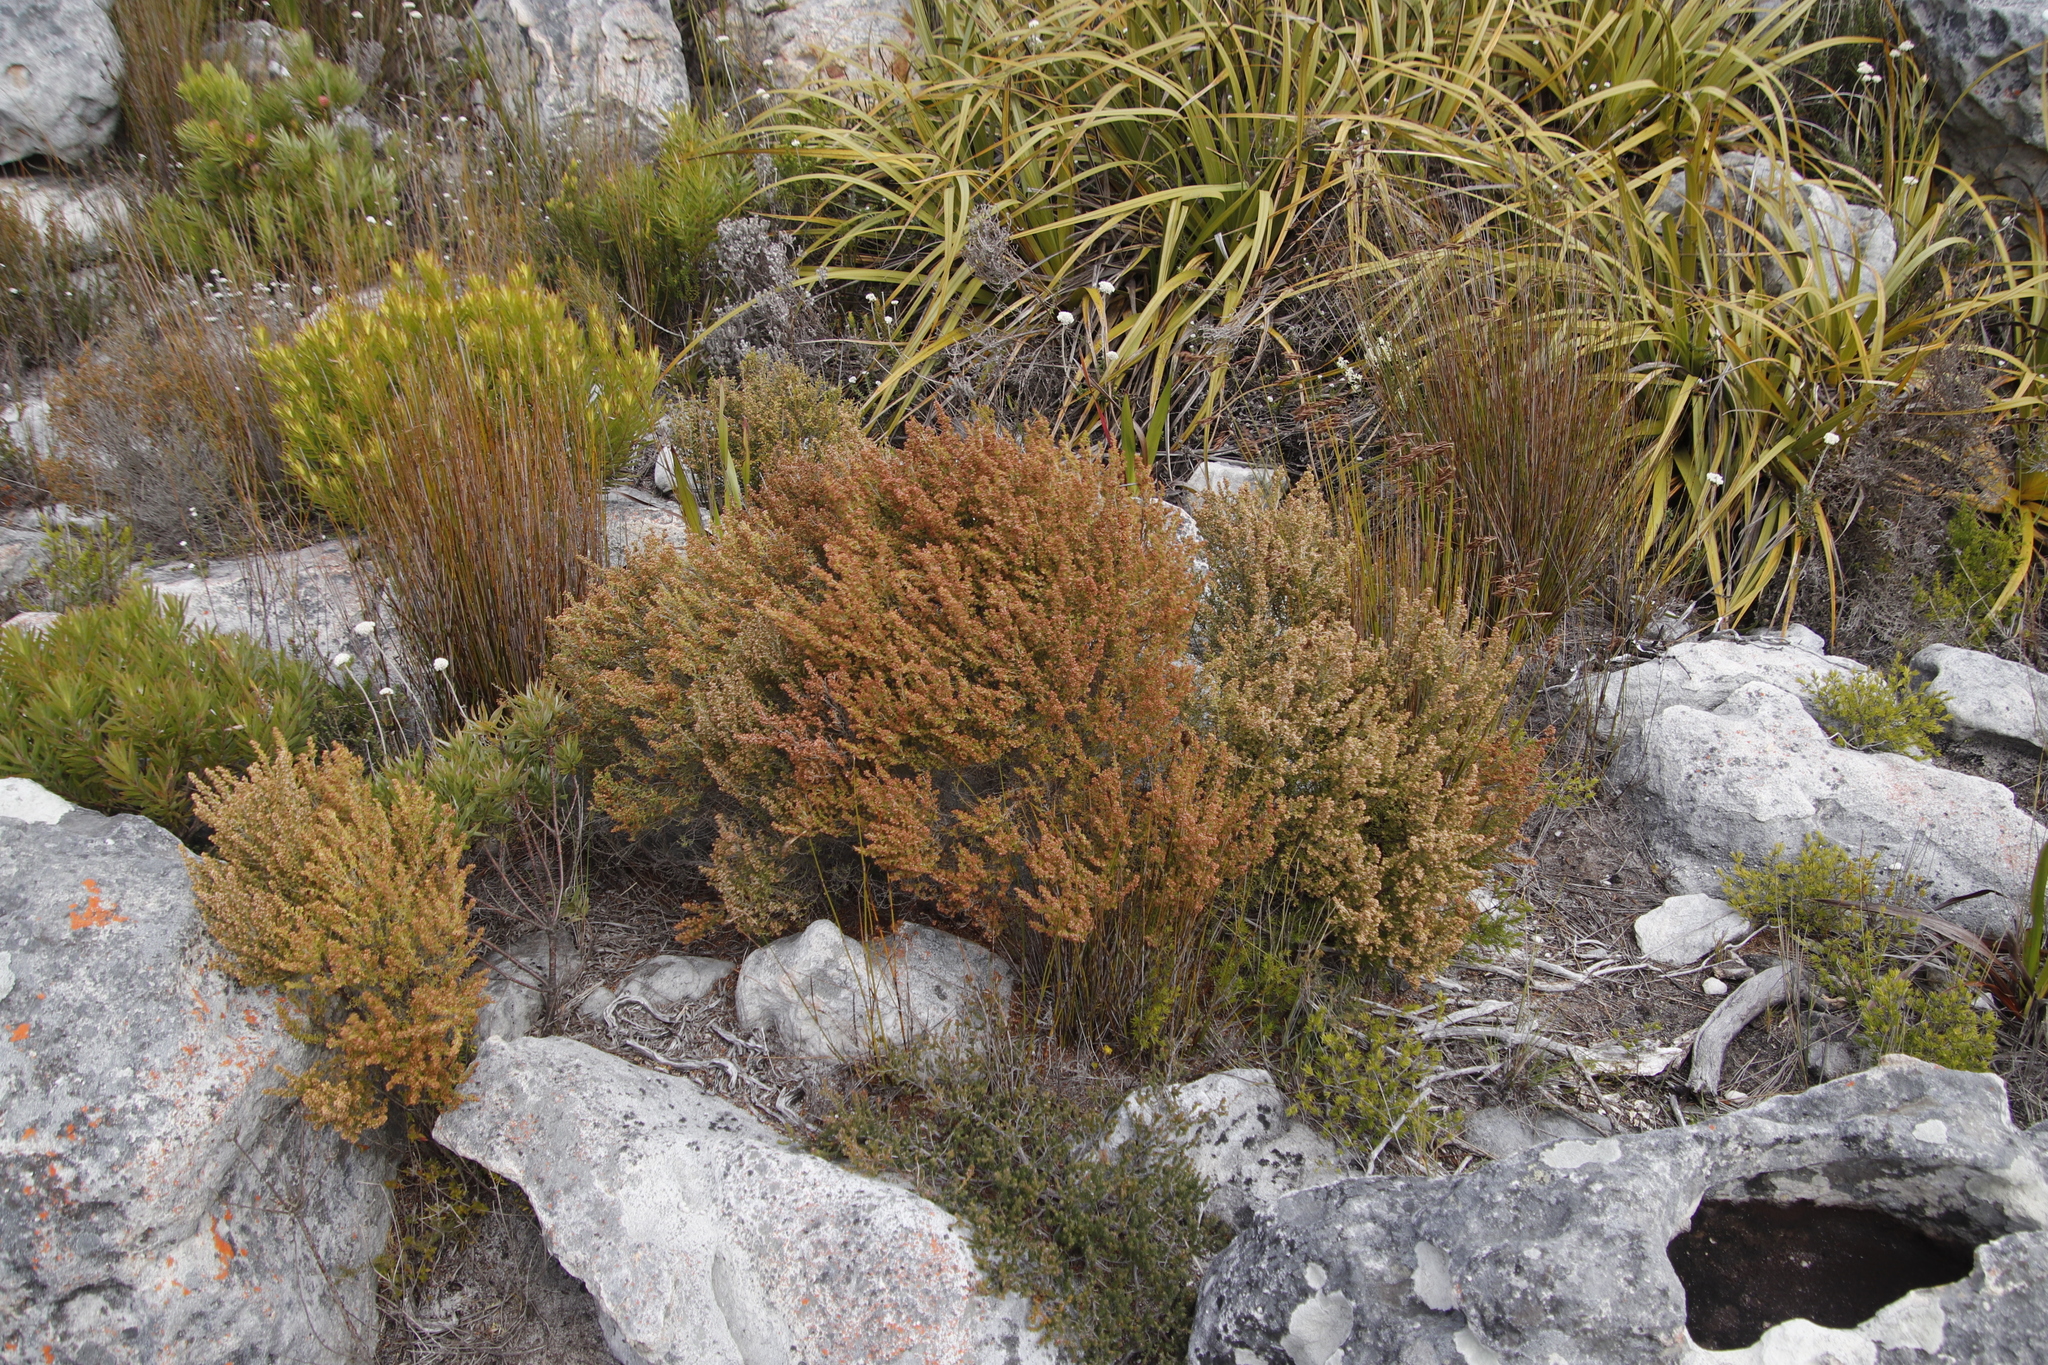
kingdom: Plantae
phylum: Tracheophyta
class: Magnoliopsida
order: Ericales
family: Ericaceae
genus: Erica
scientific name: Erica hispidula
